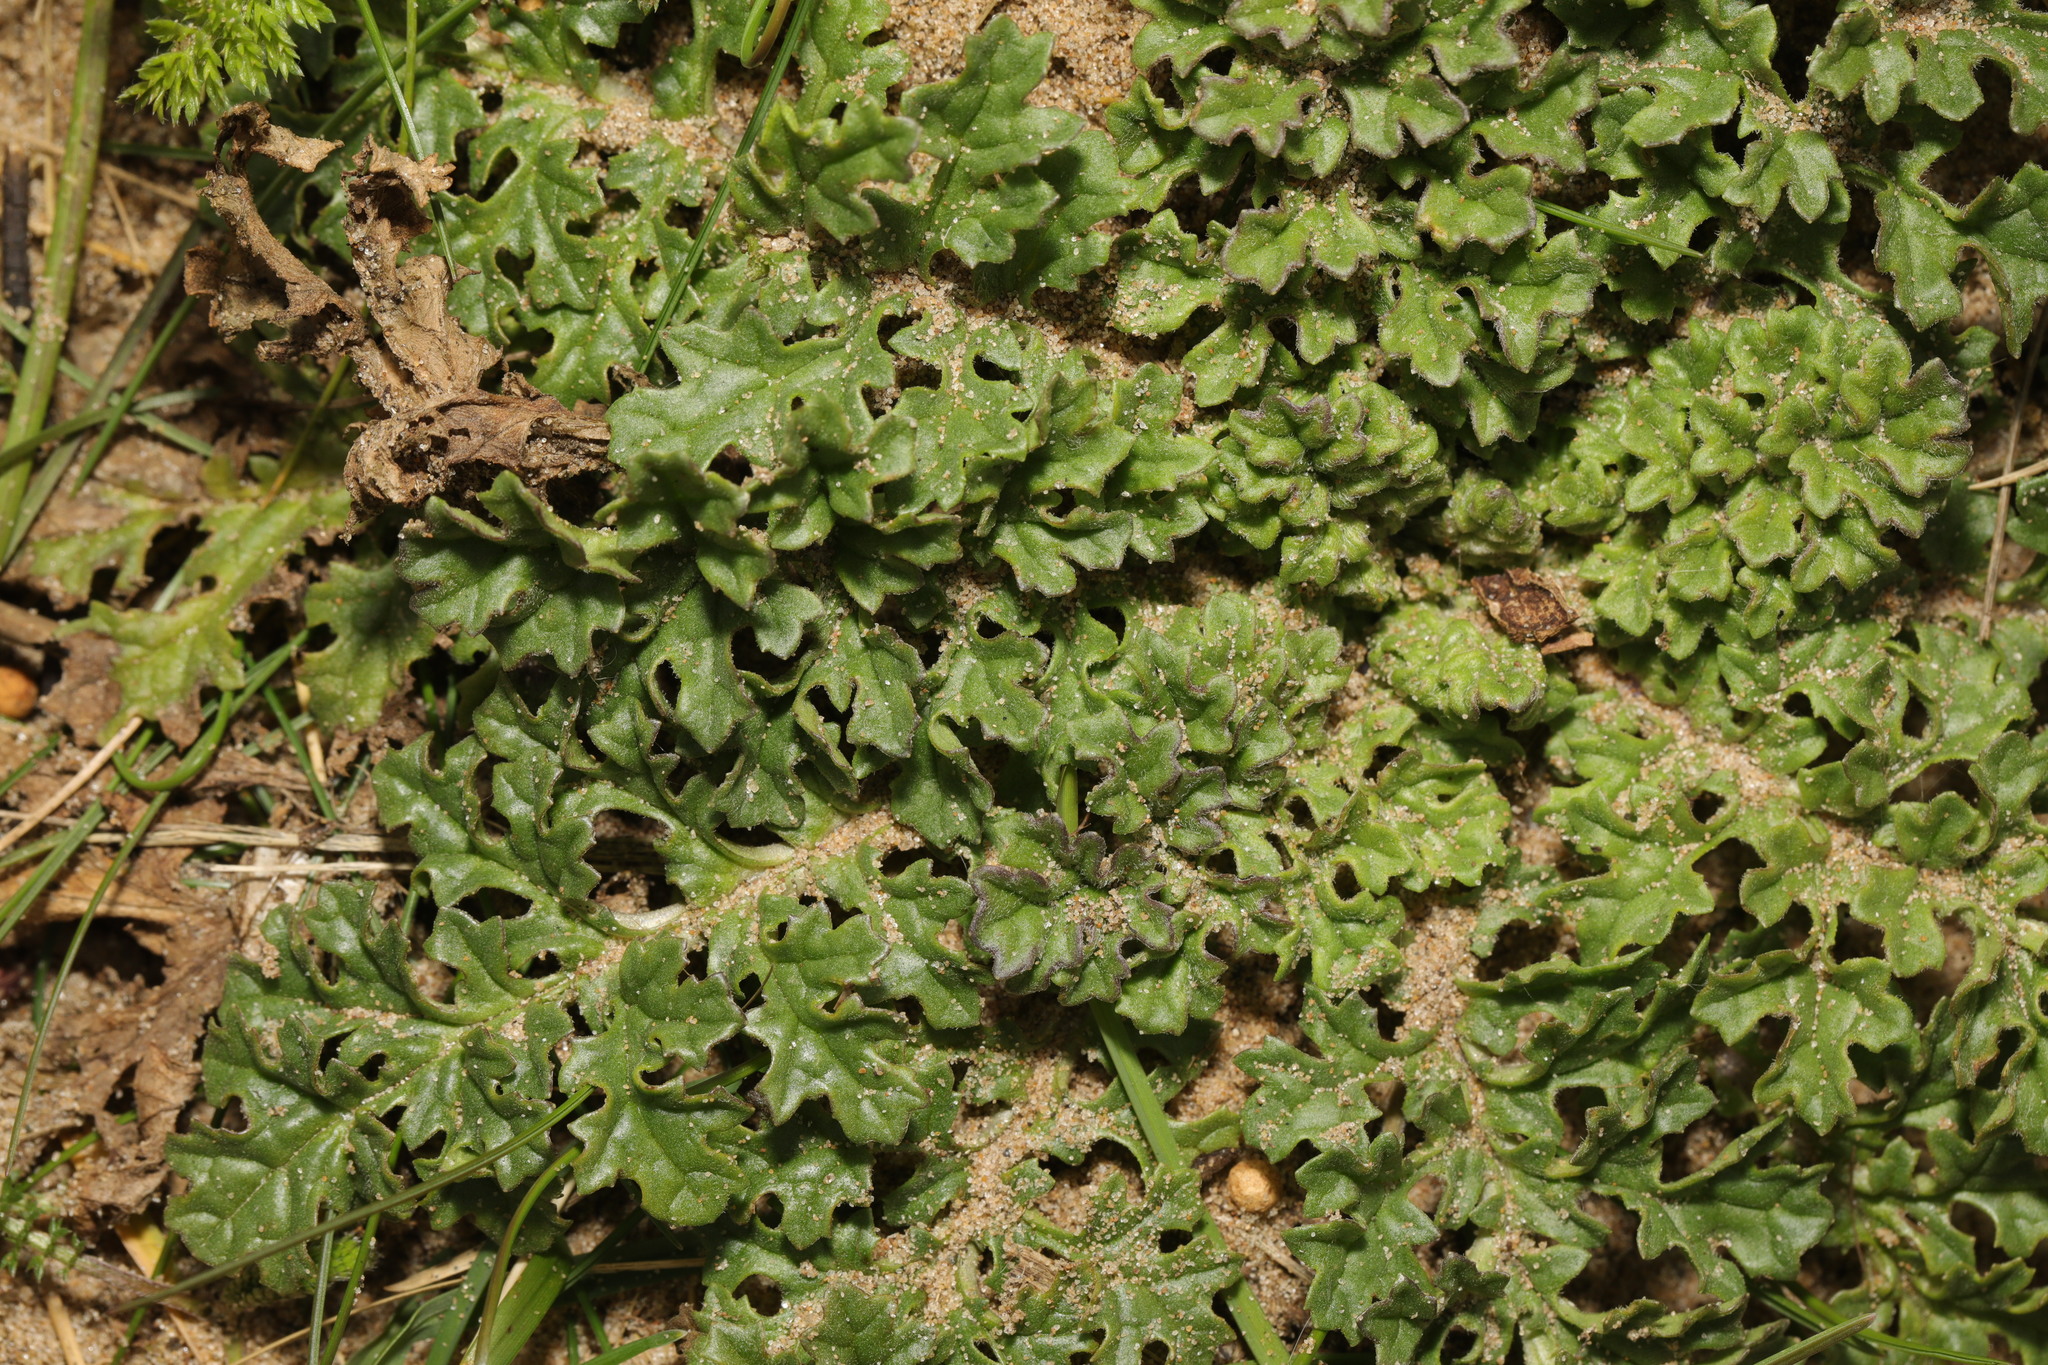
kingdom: Plantae
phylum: Tracheophyta
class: Magnoliopsida
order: Asterales
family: Asteraceae
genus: Jacobaea
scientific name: Jacobaea vulgaris
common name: Stinking willie
